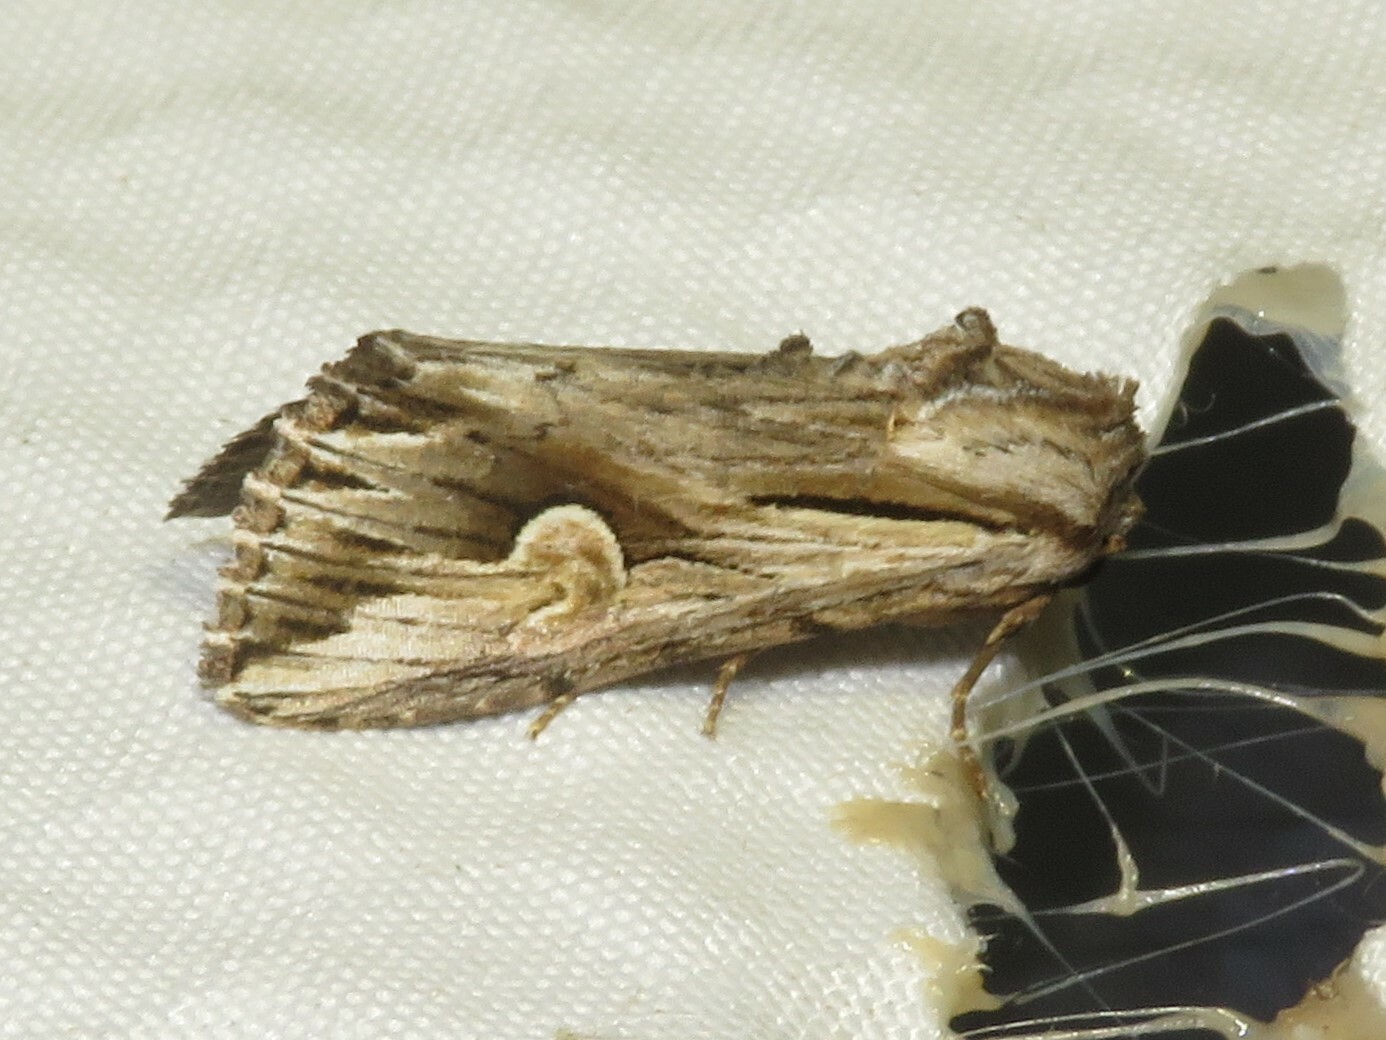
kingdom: Animalia
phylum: Arthropoda
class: Insecta
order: Lepidoptera
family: Noctuidae
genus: Nedra
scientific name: Nedra ramosula
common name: Gray half-spot
